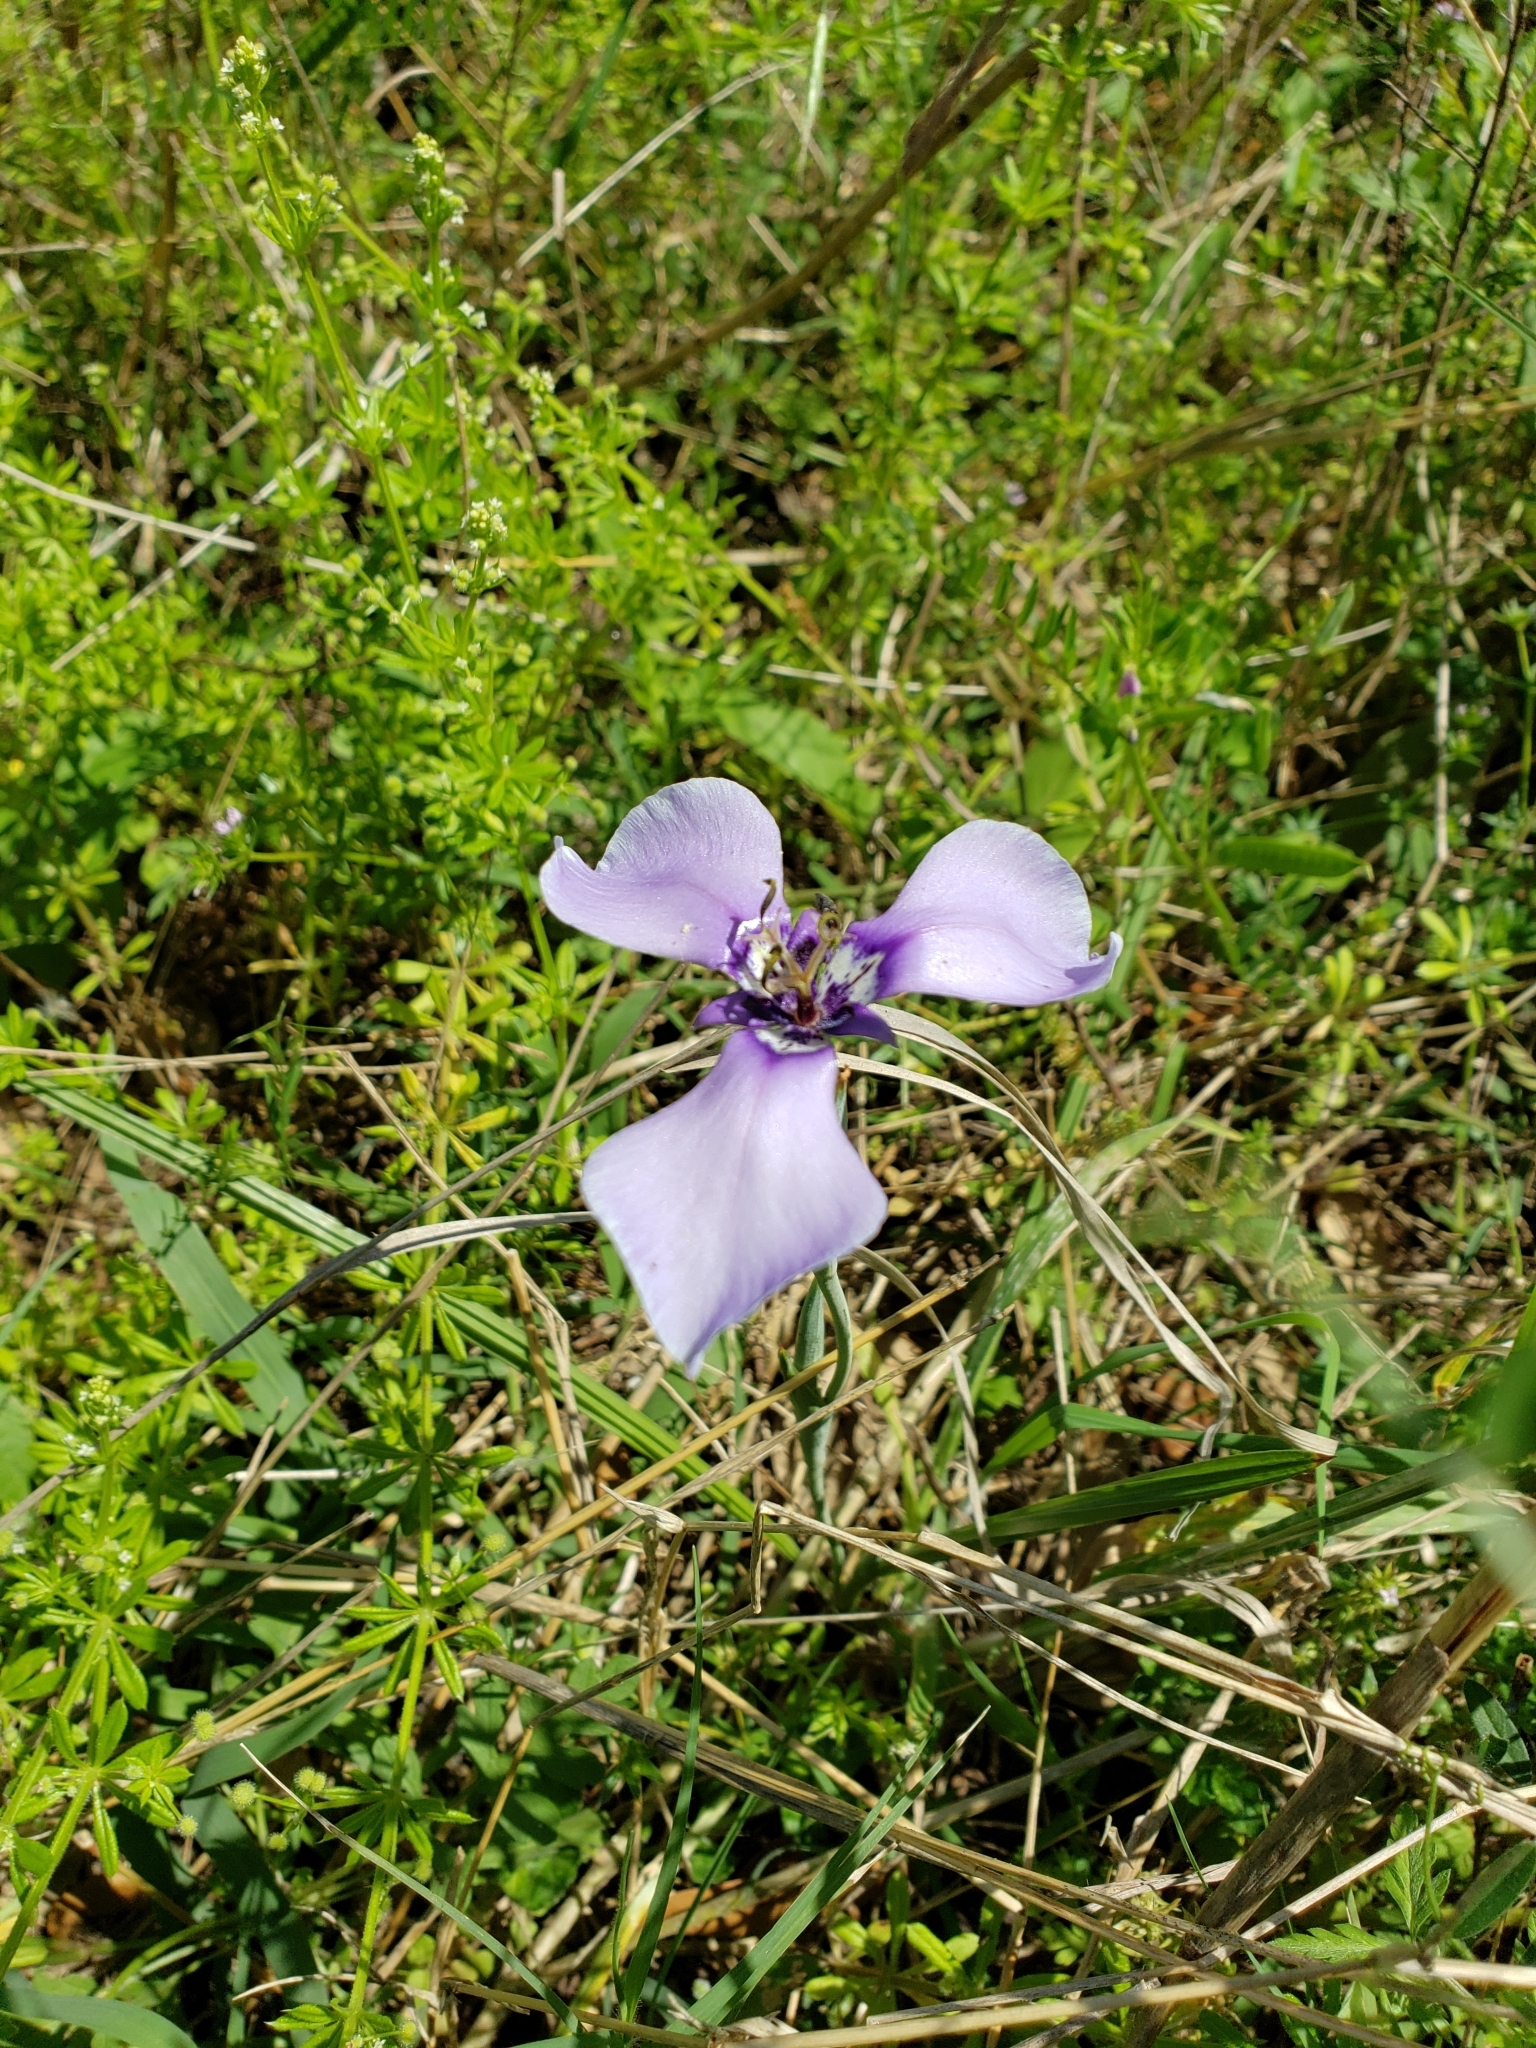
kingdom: Plantae
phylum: Tracheophyta
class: Liliopsida
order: Asparagales
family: Iridaceae
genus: Herbertia
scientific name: Herbertia lahue
